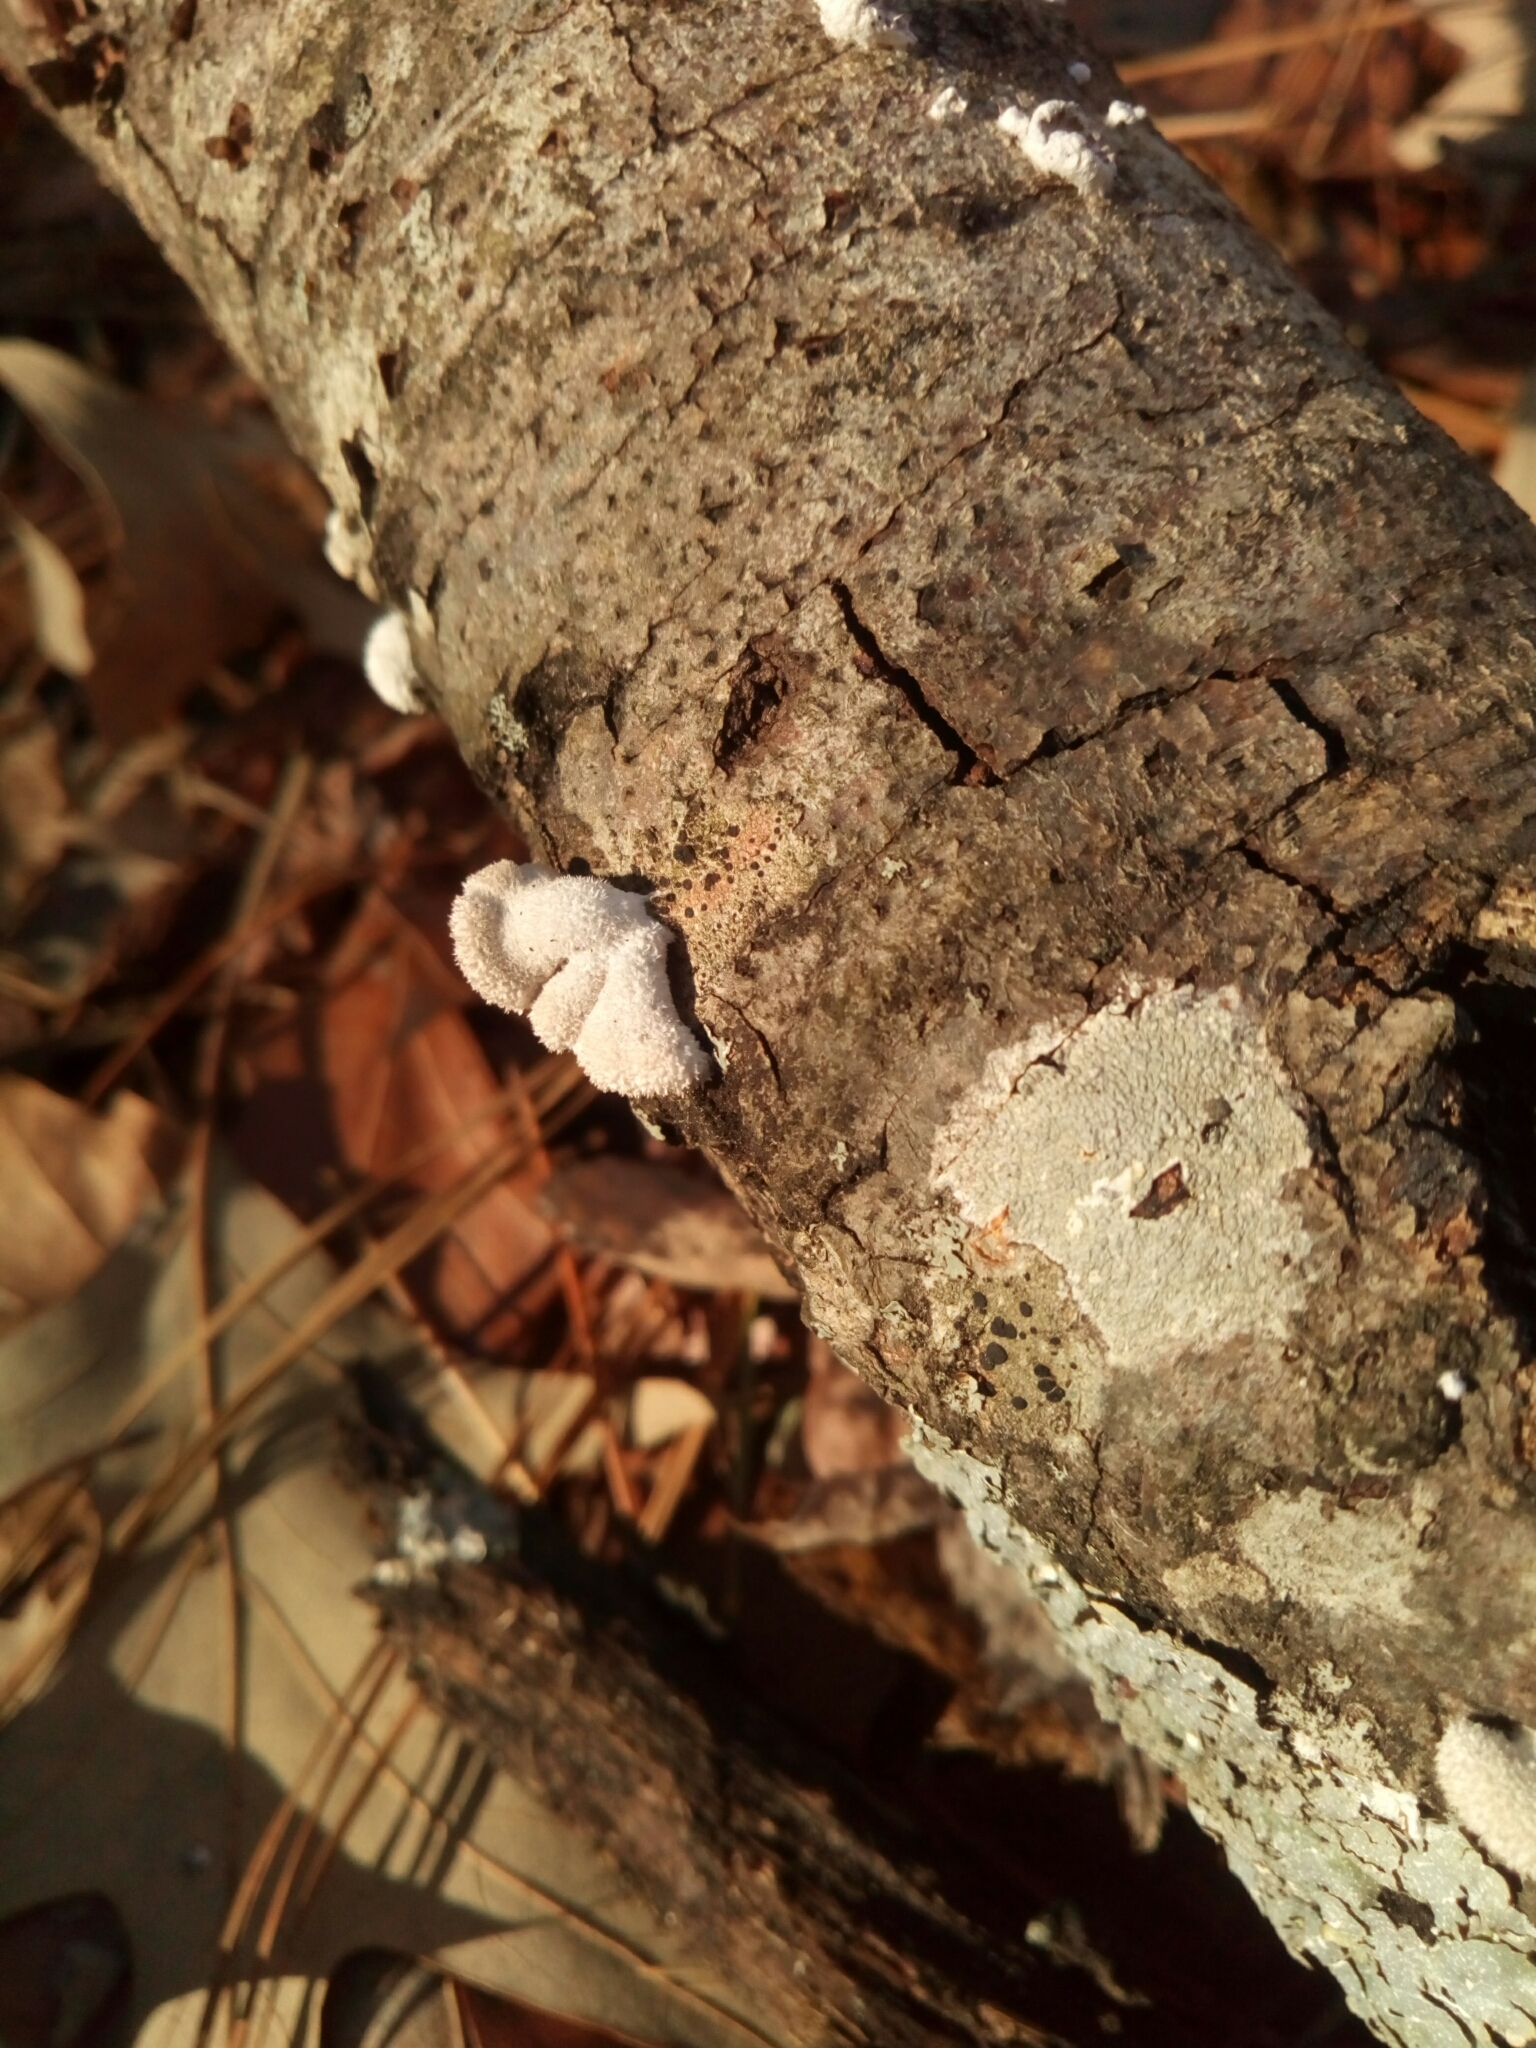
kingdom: Fungi
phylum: Basidiomycota
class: Agaricomycetes
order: Agaricales
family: Schizophyllaceae
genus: Schizophyllum
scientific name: Schizophyllum commune
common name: Common porecrust
